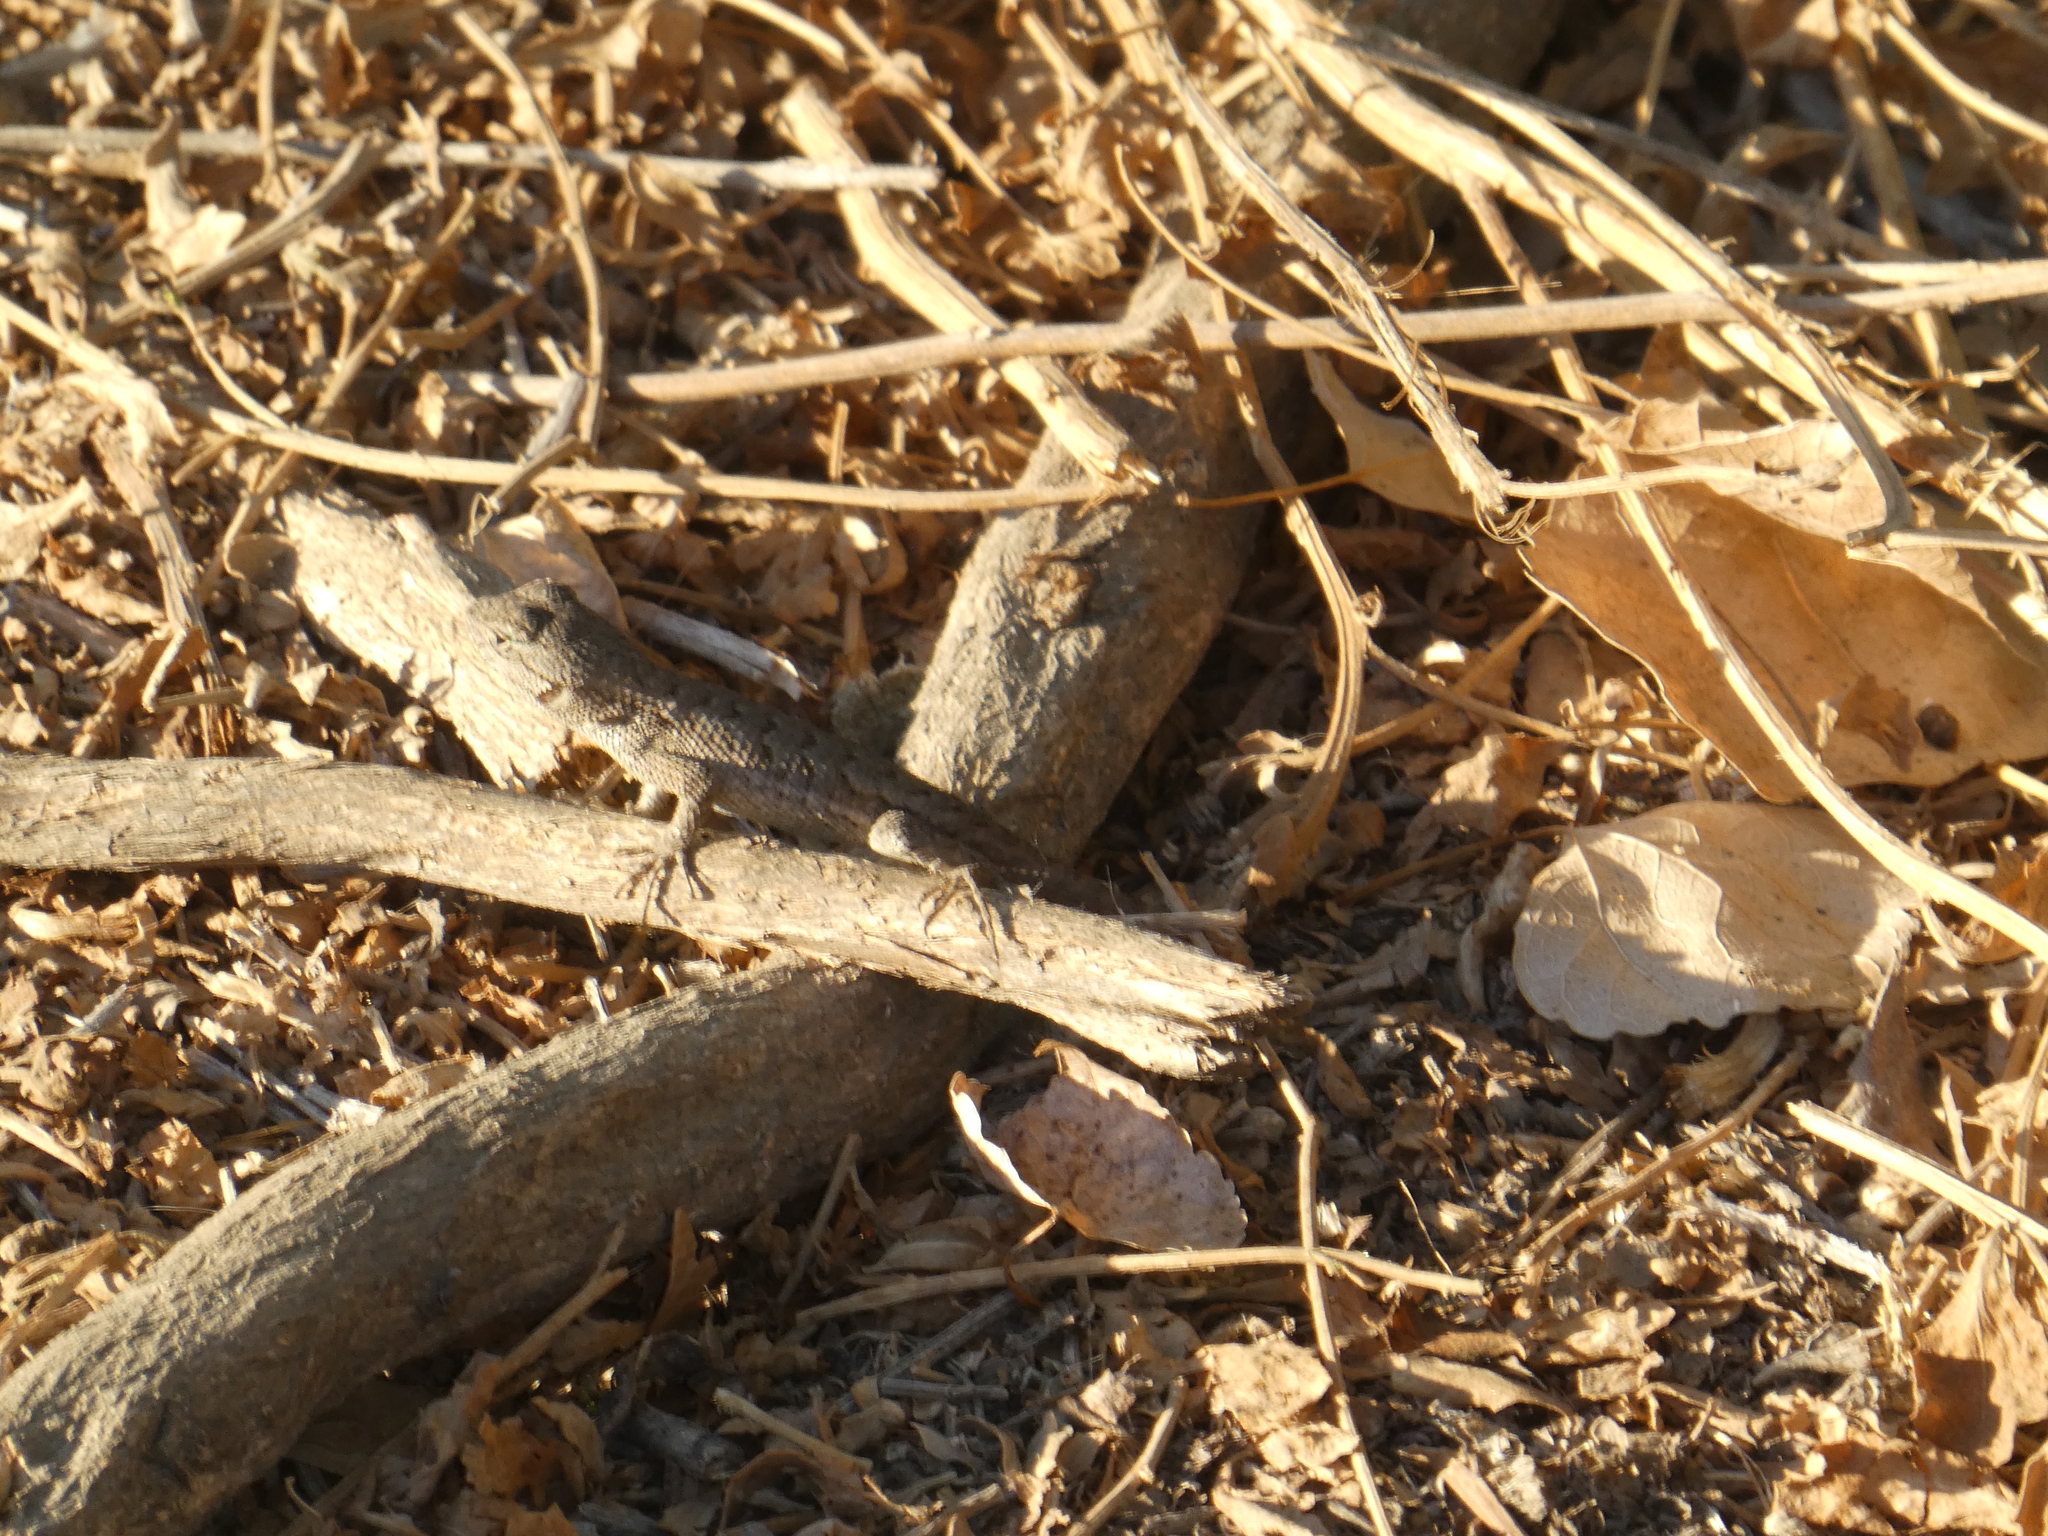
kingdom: Animalia
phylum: Chordata
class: Squamata
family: Phrynosomatidae
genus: Sceloporus
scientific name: Sceloporus occidentalis
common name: Western fence lizard
